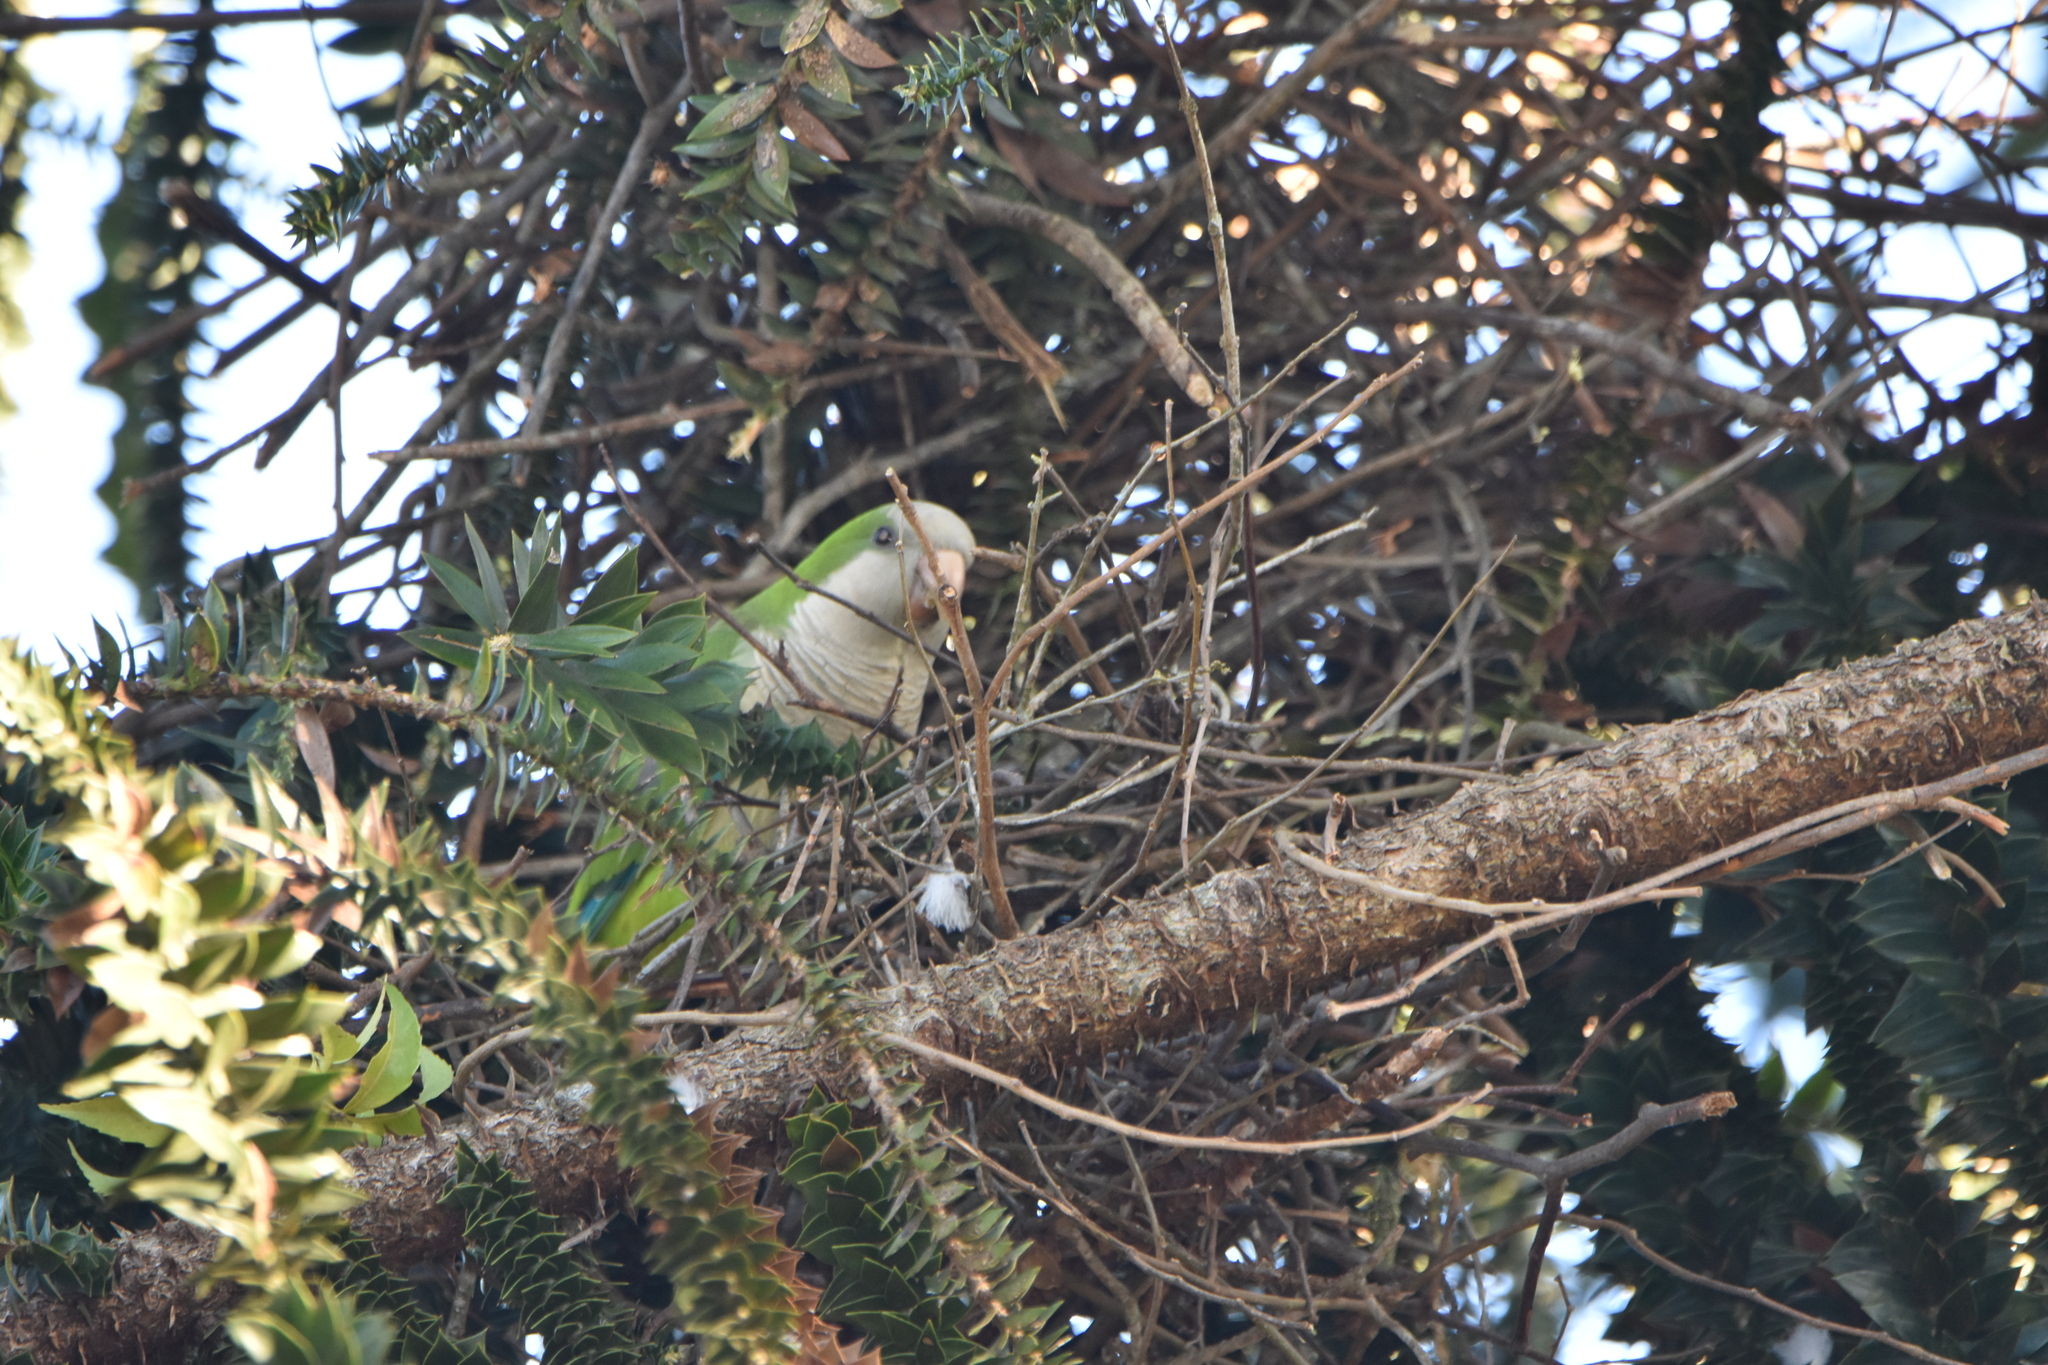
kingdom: Animalia
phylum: Chordata
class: Aves
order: Psittaciformes
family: Psittacidae
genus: Myiopsitta
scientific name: Myiopsitta monachus
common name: Monk parakeet
